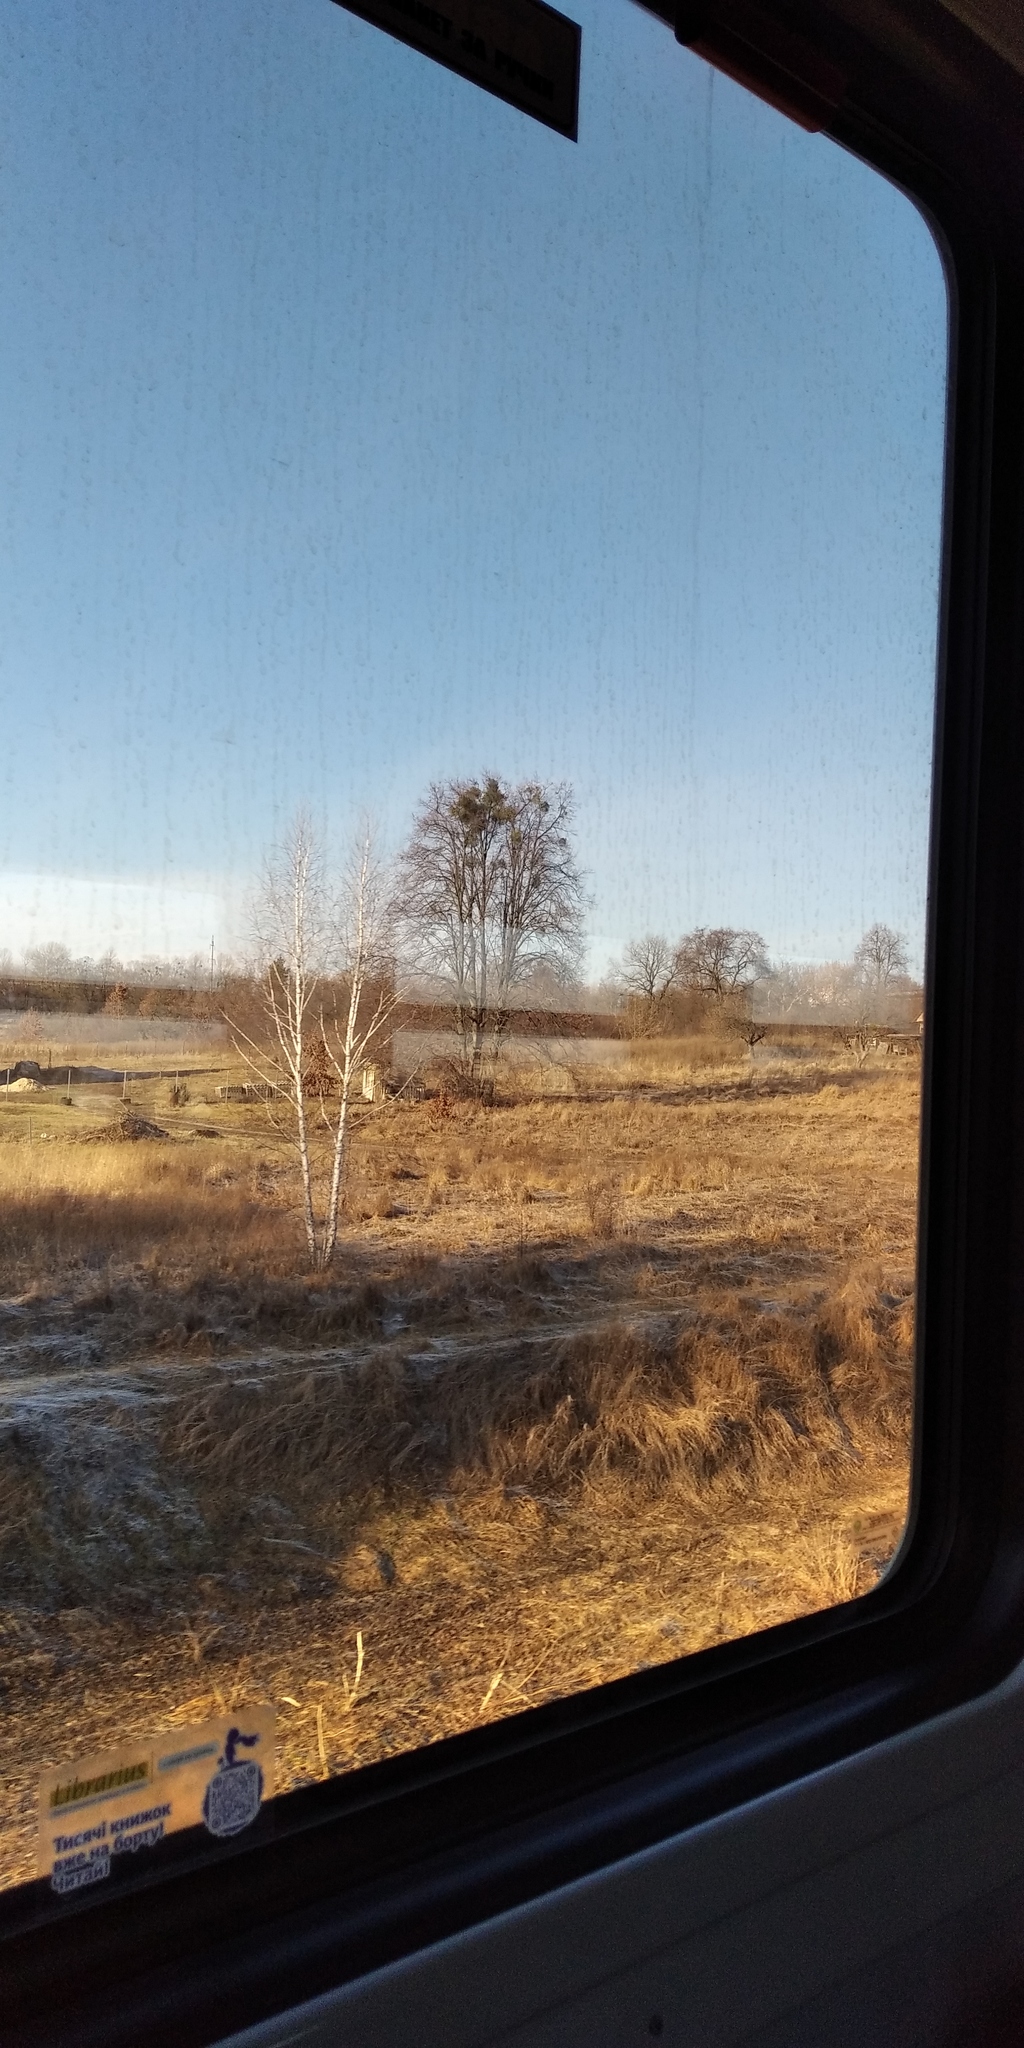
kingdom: Plantae
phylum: Tracheophyta
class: Magnoliopsida
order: Santalales
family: Viscaceae
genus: Viscum
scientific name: Viscum album
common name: Mistletoe
